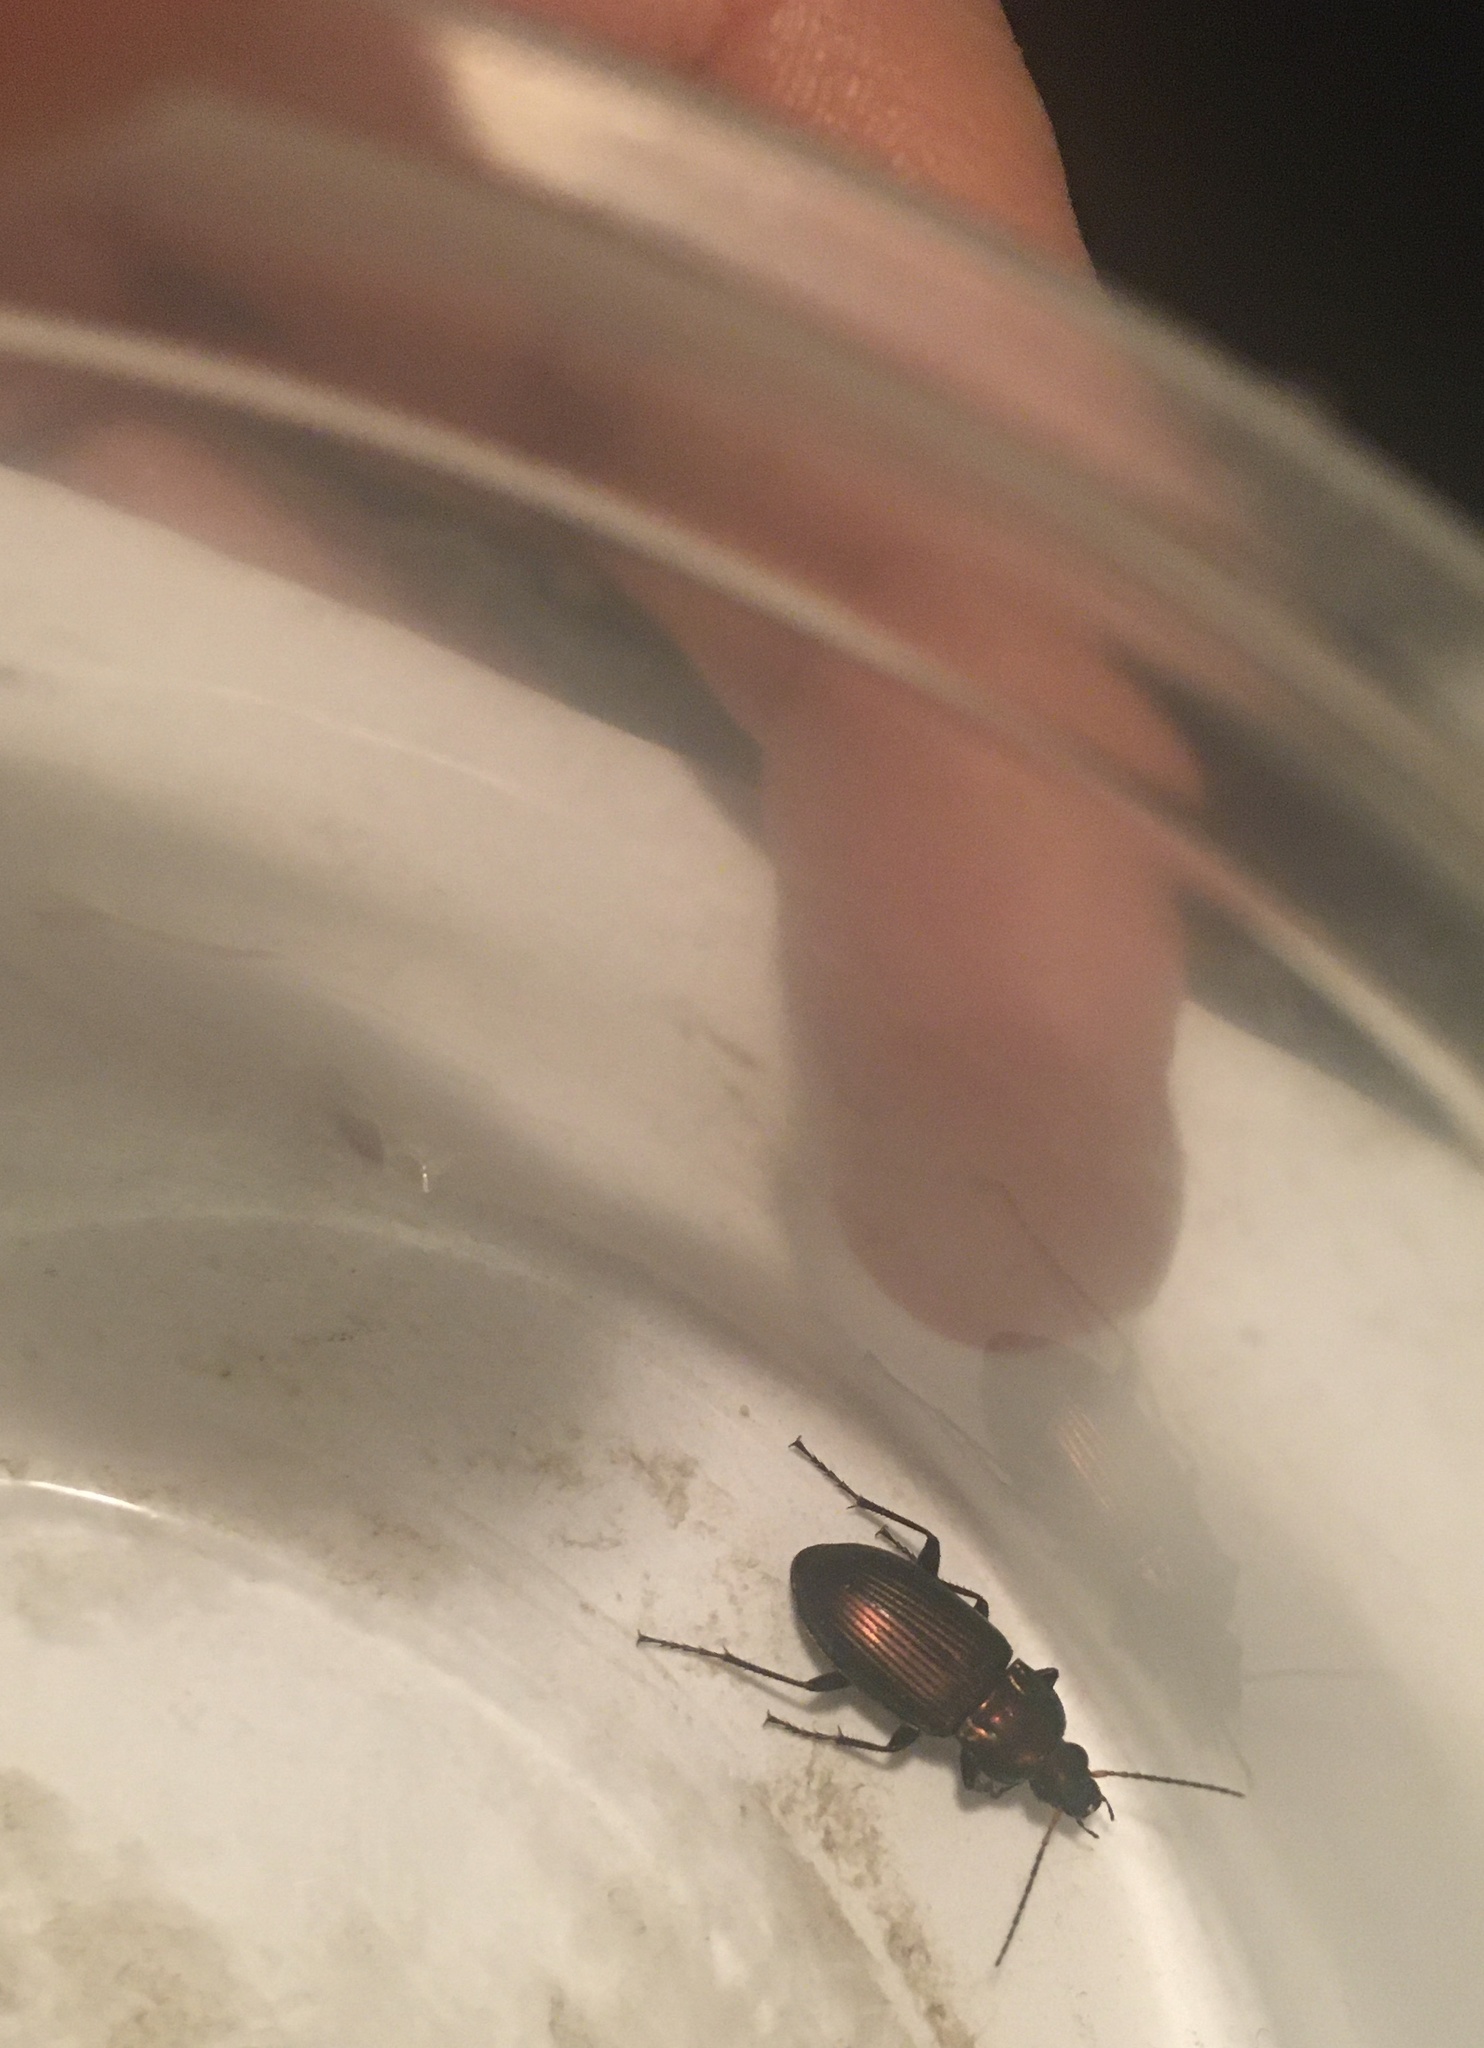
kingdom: Animalia
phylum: Arthropoda
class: Insecta
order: Coleoptera
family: Carabidae
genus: Poecilus
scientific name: Poecilus chalcites
